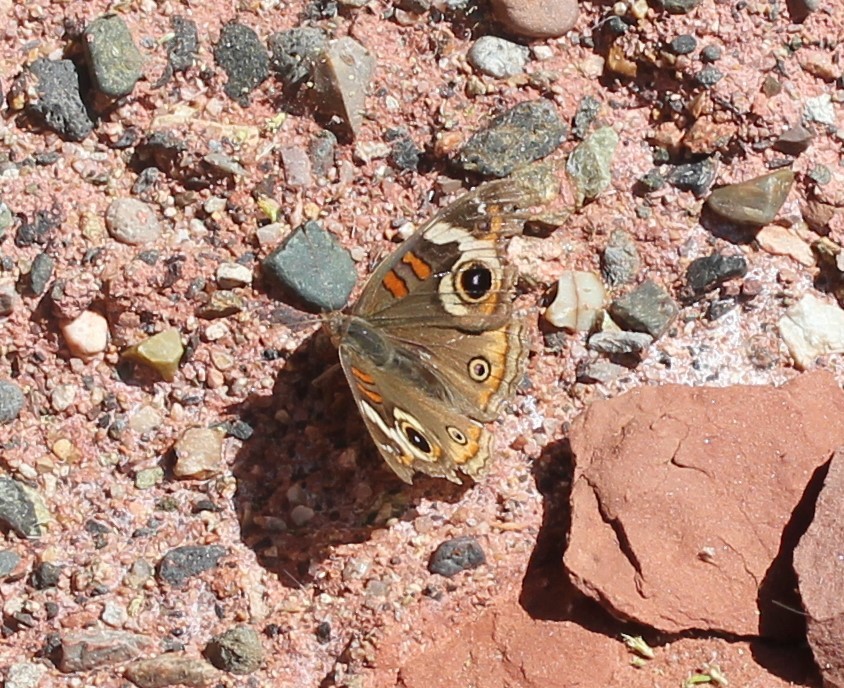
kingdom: Animalia
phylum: Arthropoda
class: Insecta
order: Lepidoptera
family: Nymphalidae
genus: Junonia
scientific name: Junonia grisea
